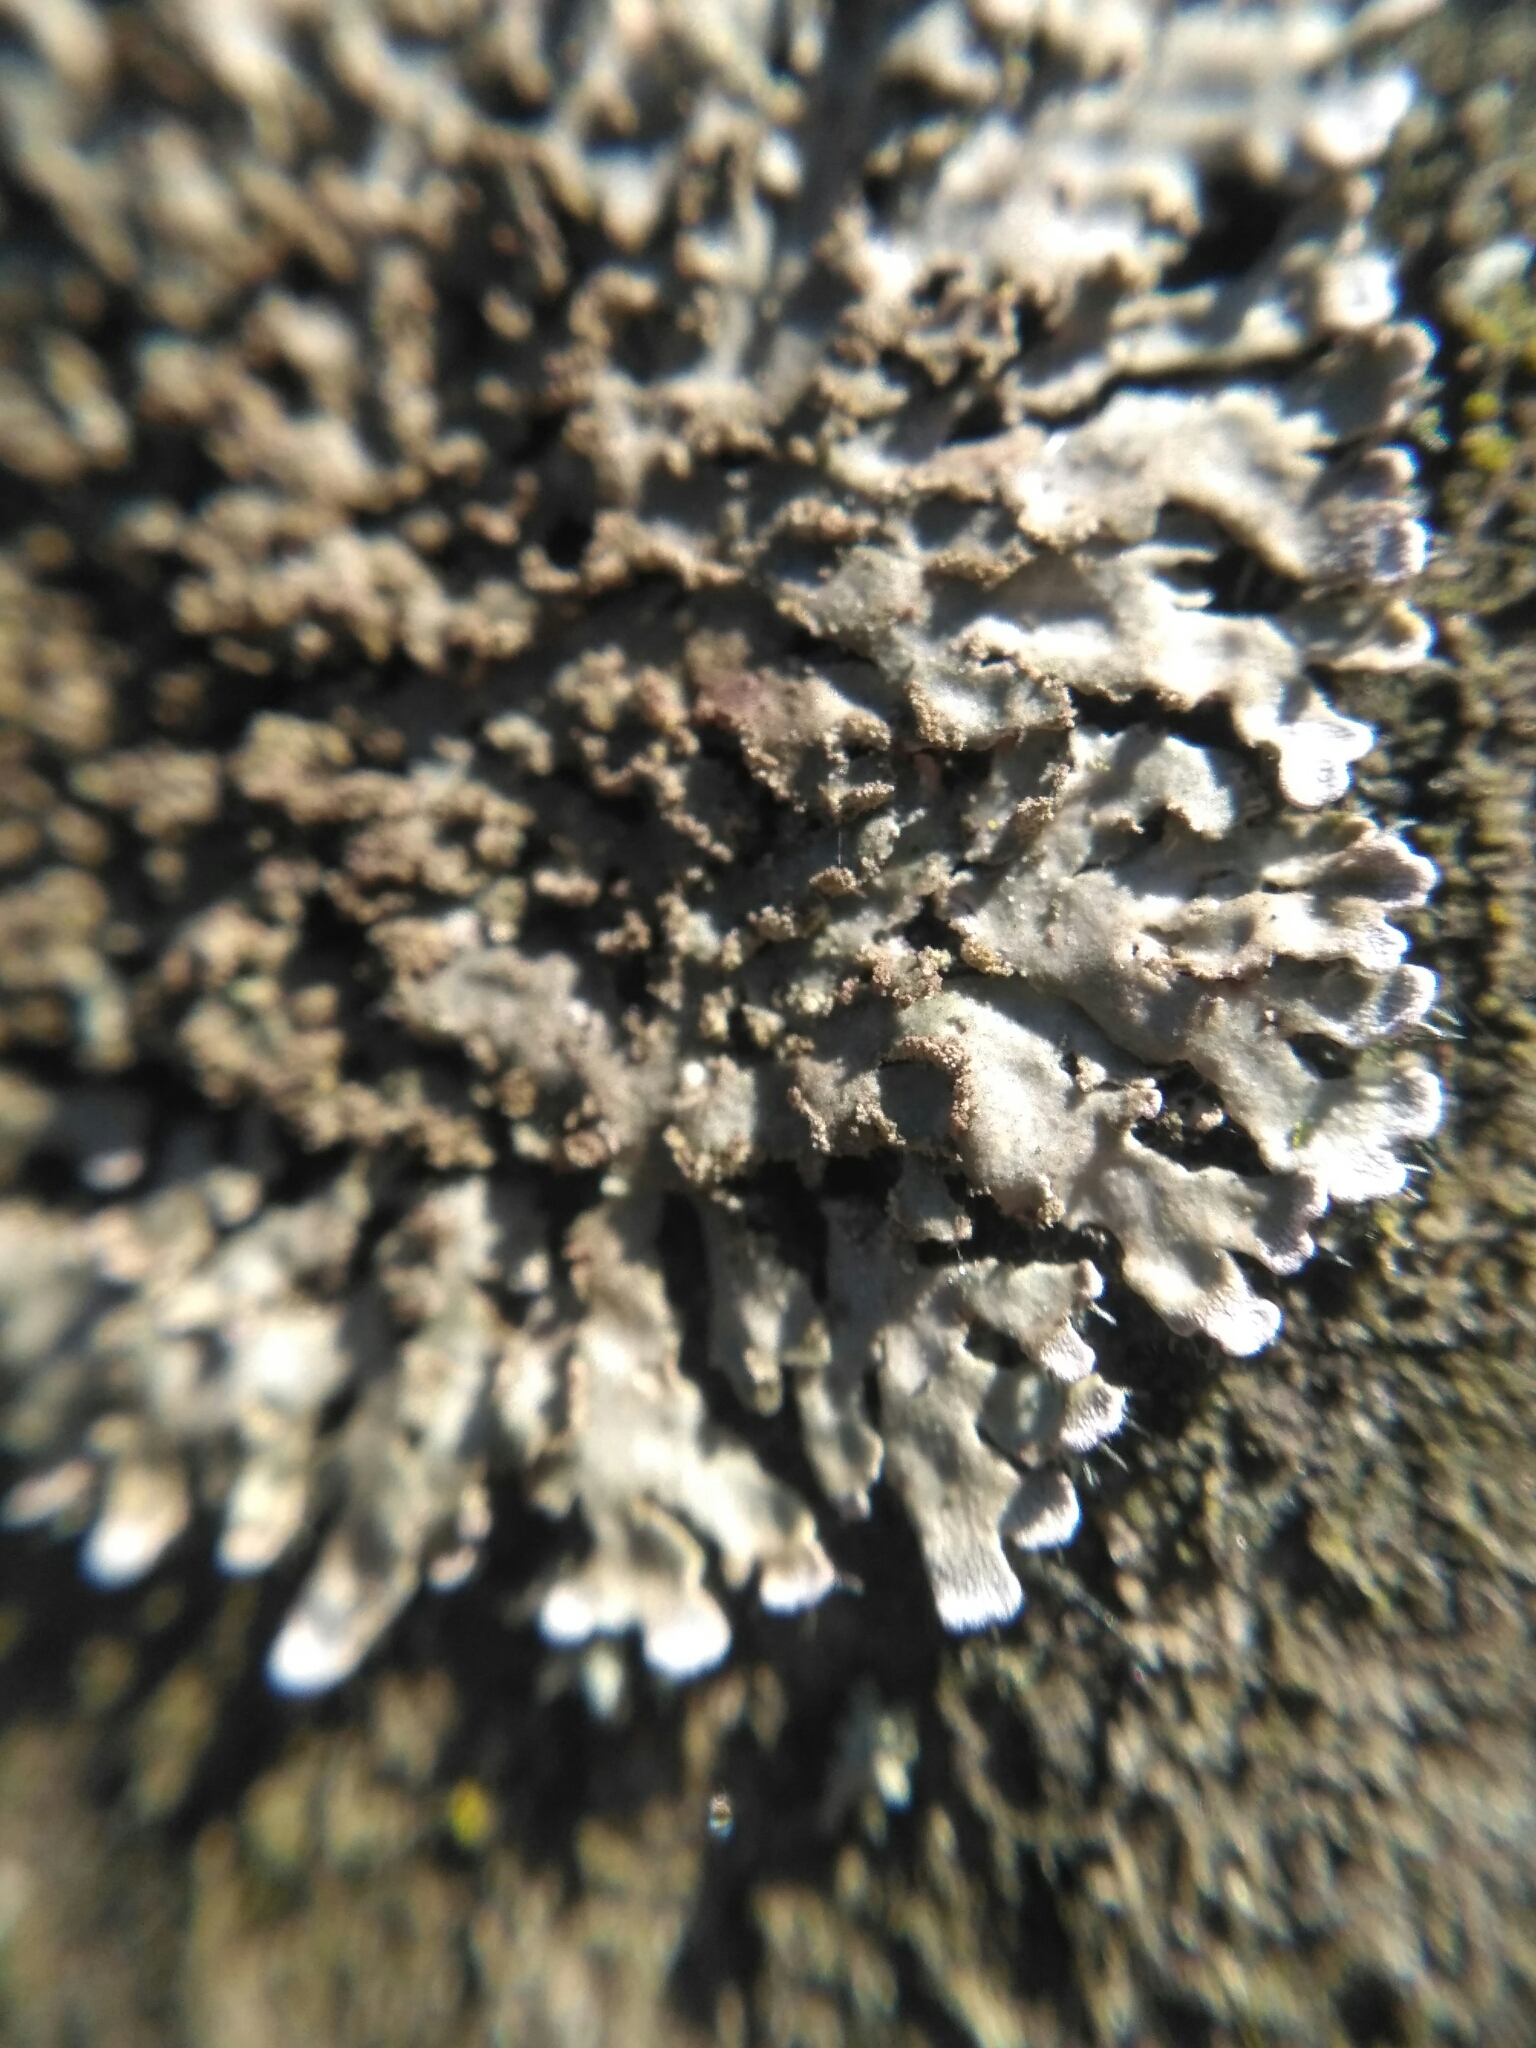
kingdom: Fungi
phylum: Ascomycota
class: Lecanoromycetes
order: Caliciales
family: Physciaceae
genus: Physconia
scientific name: Physconia enteroxantha
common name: Yellow-edged frost lichen
